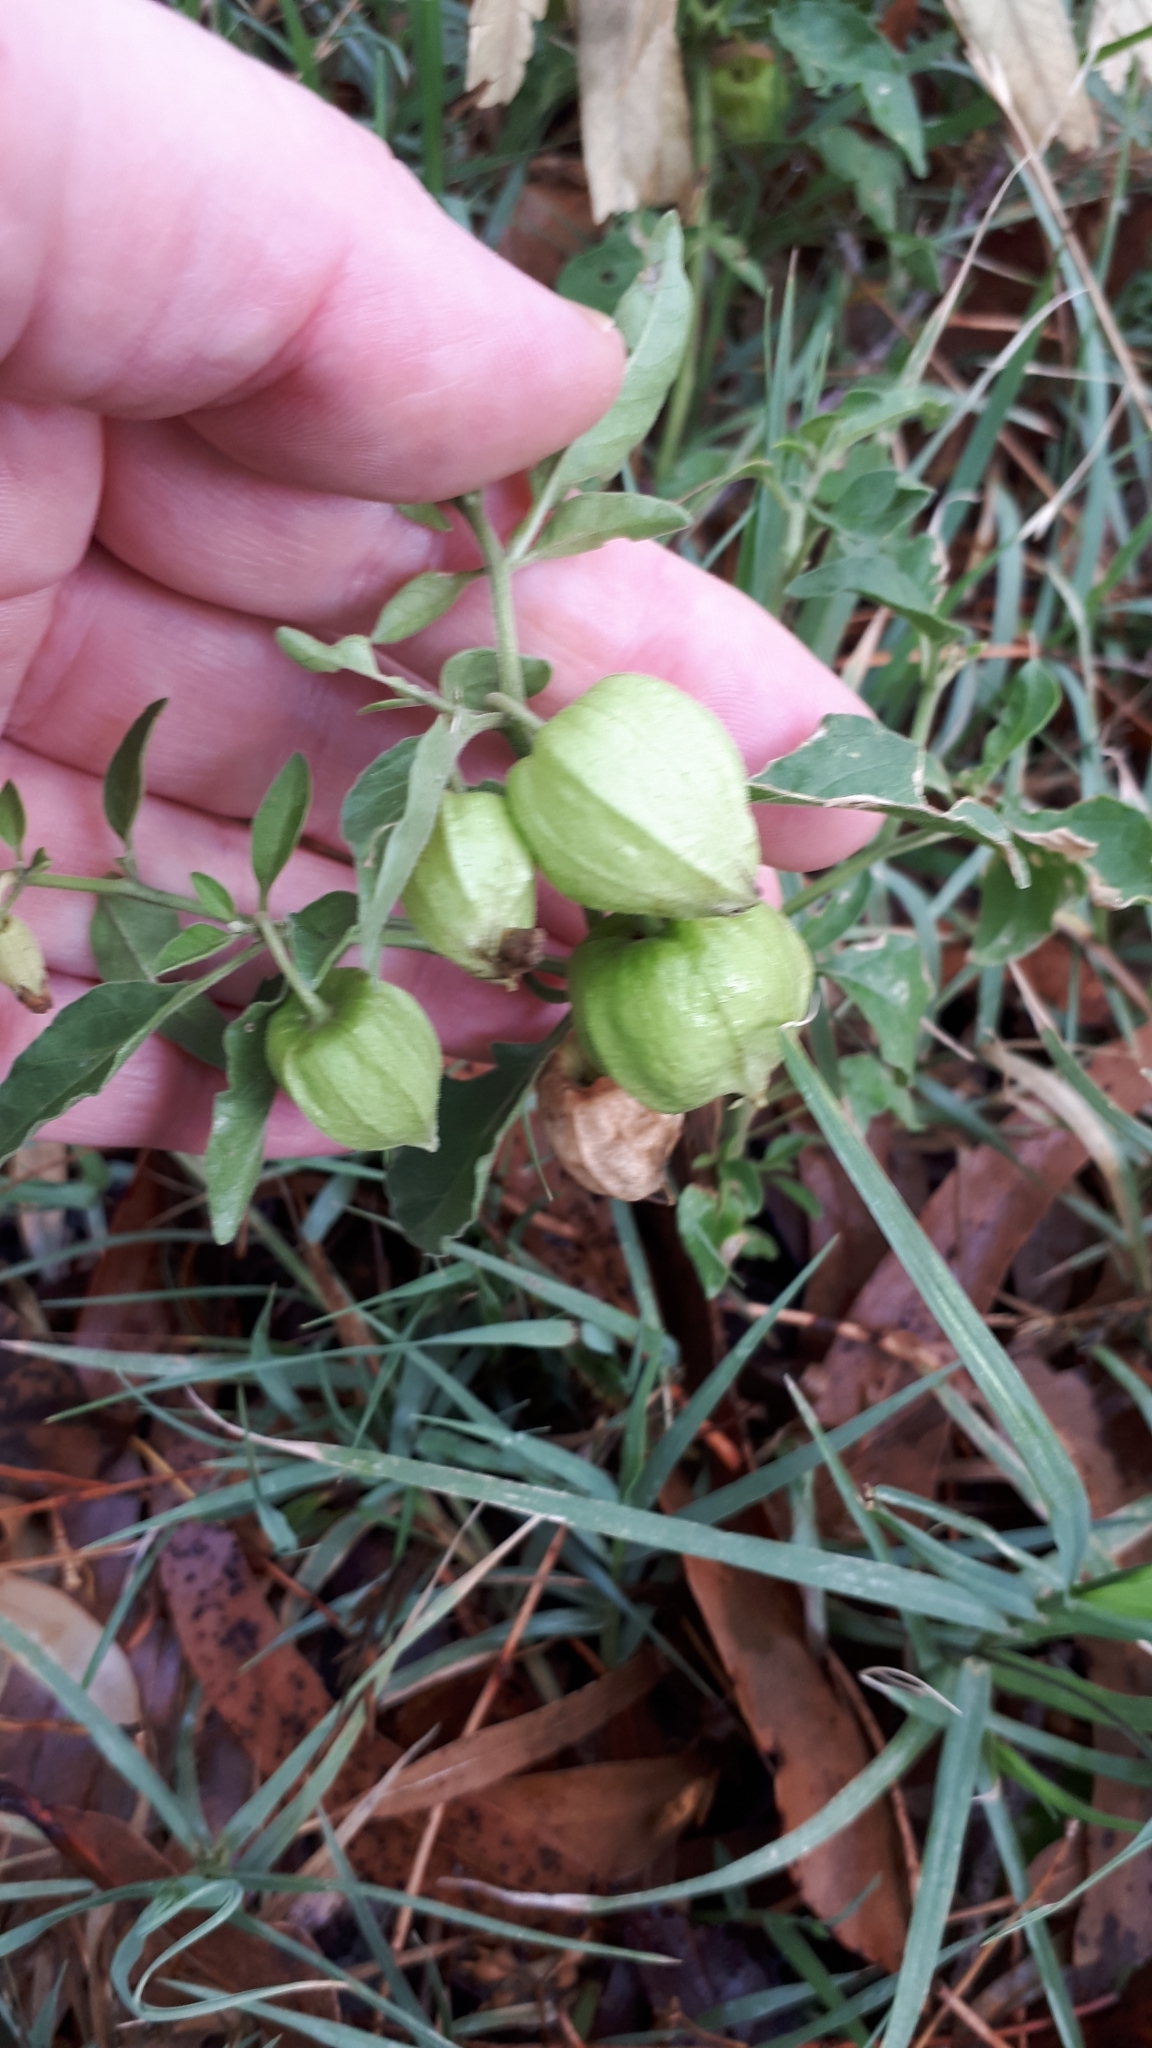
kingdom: Plantae
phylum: Tracheophyta
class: Magnoliopsida
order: Solanales
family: Solanaceae
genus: Physalis
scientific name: Physalis viscosa
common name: Stellate ground-cherry
